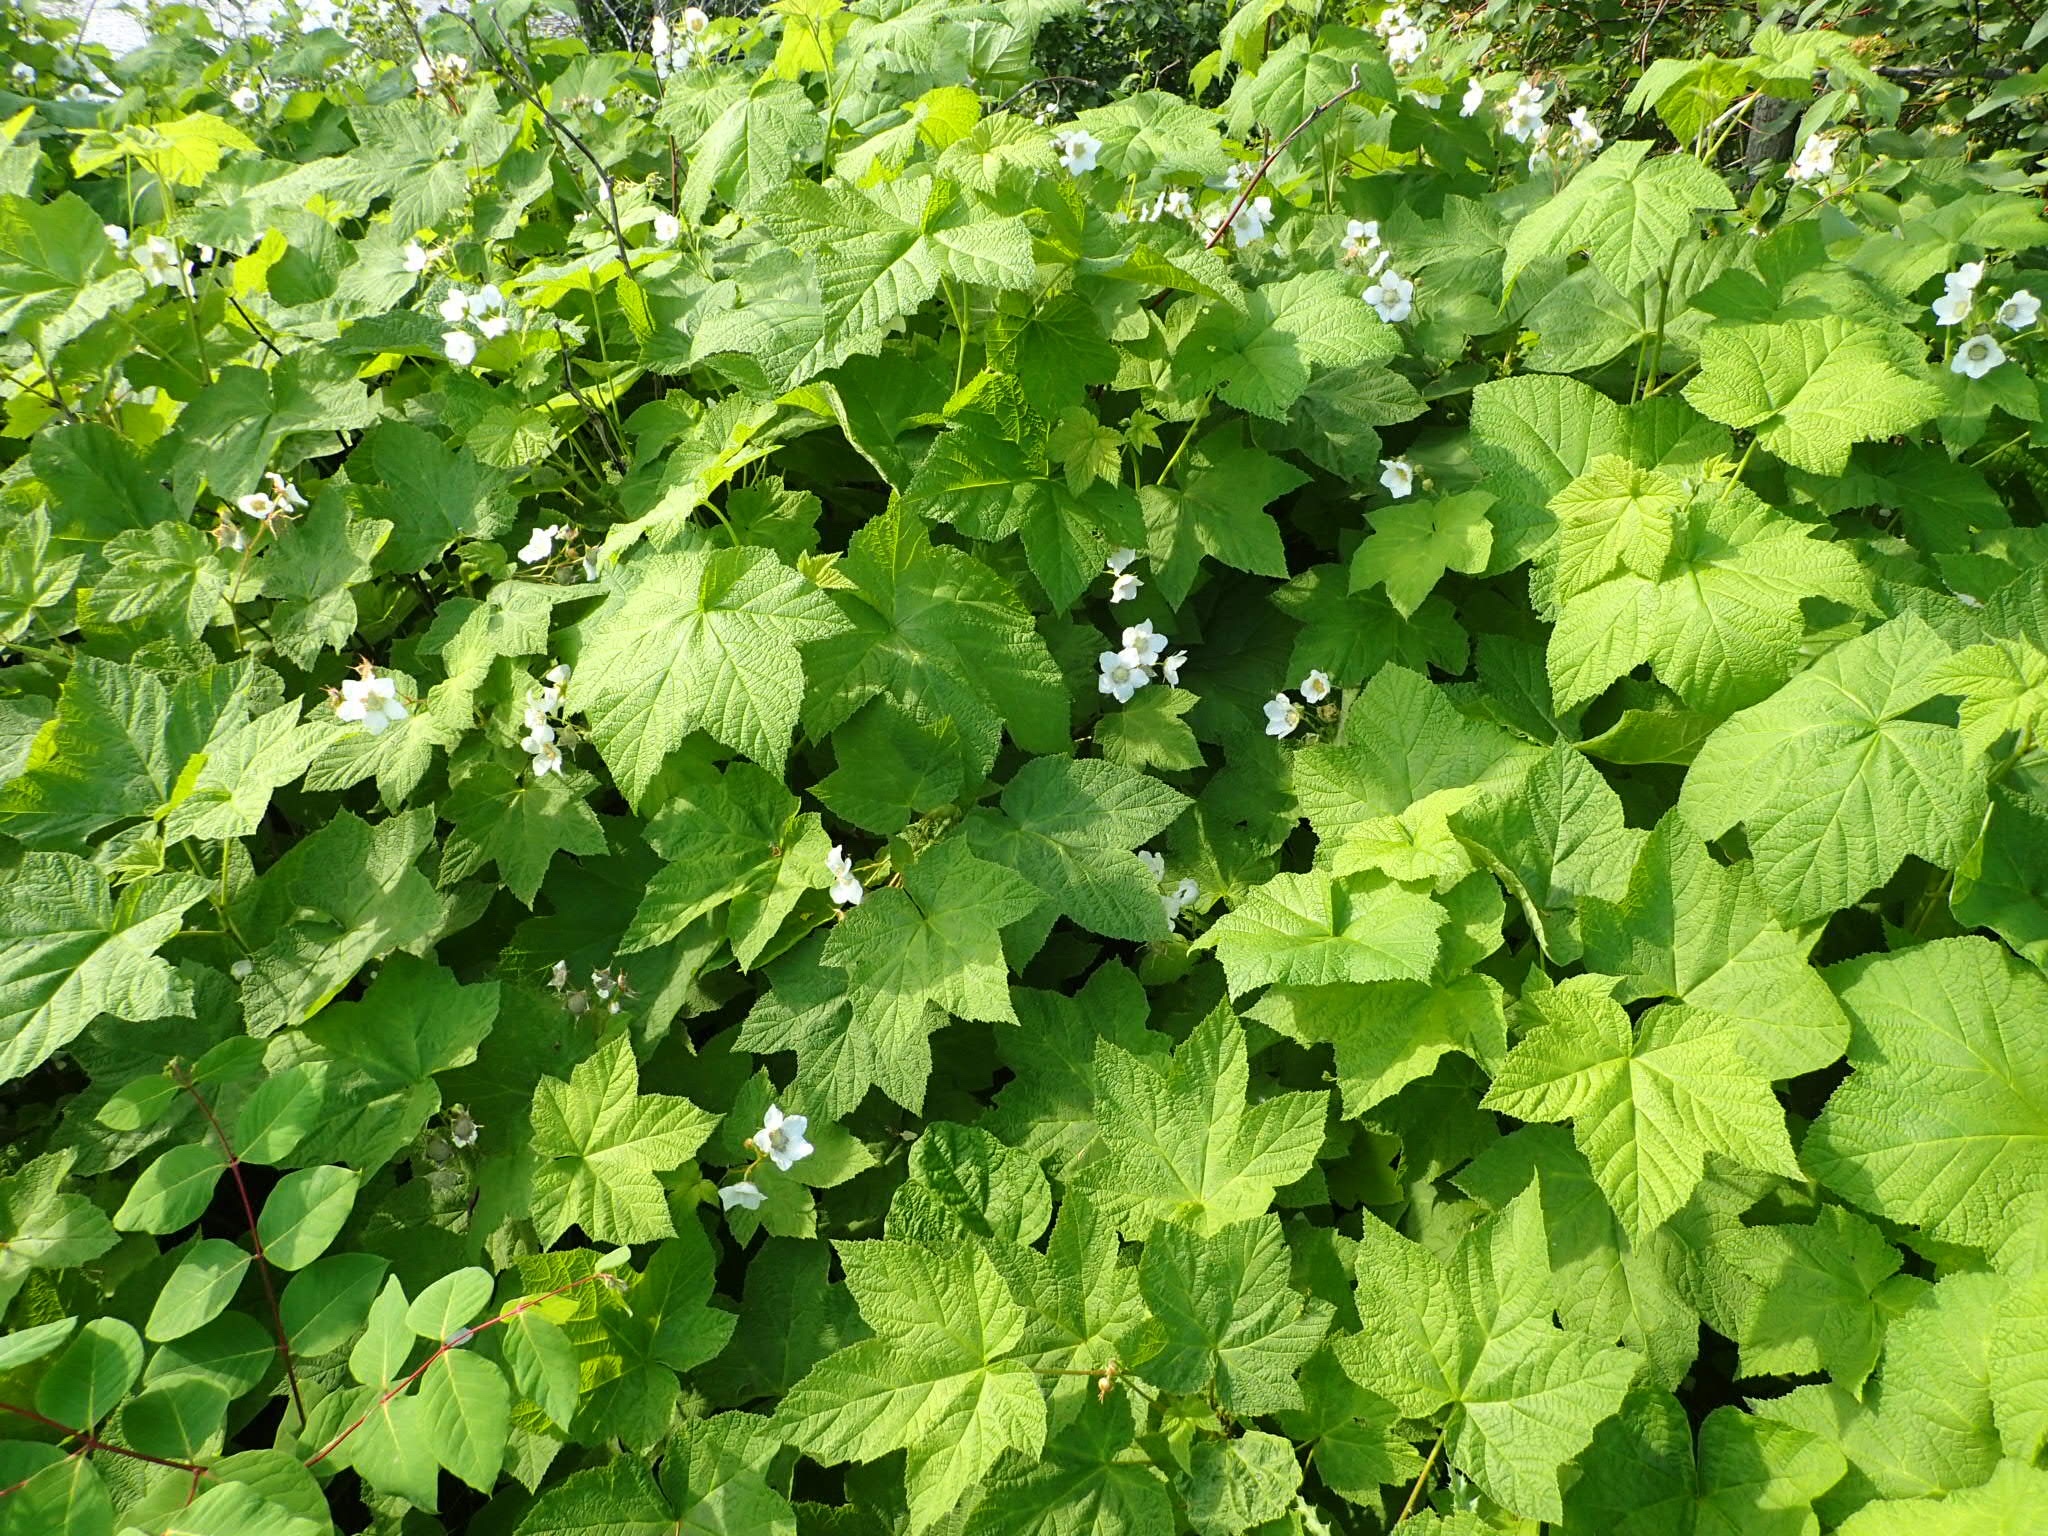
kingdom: Plantae
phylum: Tracheophyta
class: Magnoliopsida
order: Rosales
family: Rosaceae
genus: Rubus
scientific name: Rubus parviflorus
